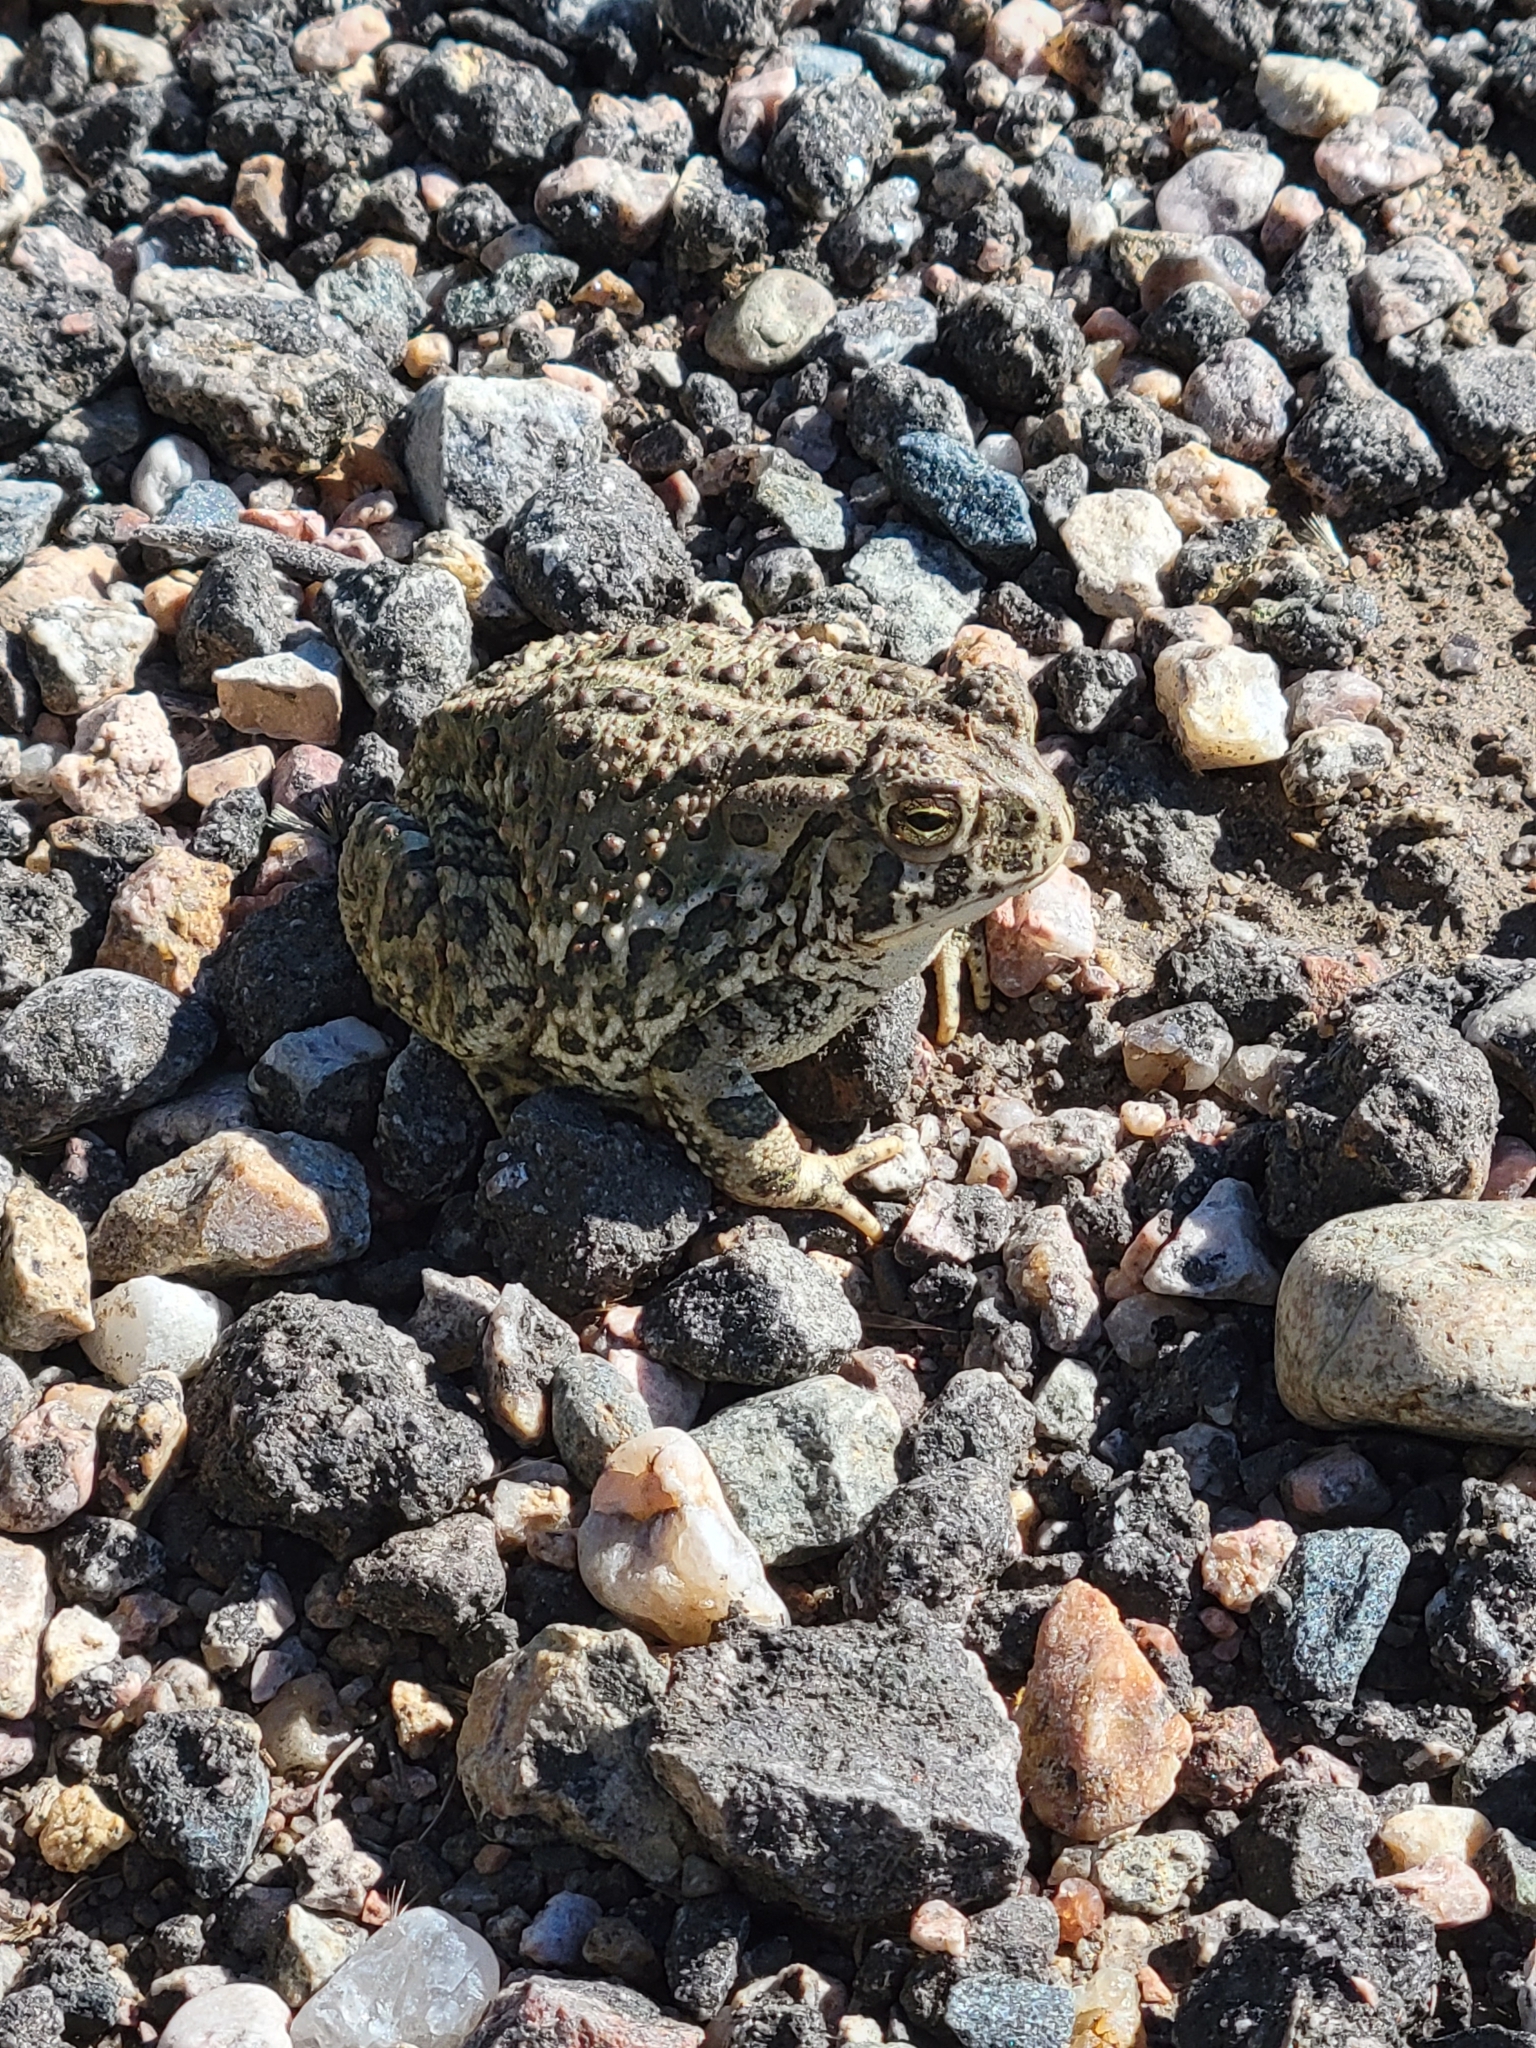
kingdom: Animalia
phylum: Chordata
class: Amphibia
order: Anura
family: Bufonidae
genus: Anaxyrus
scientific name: Anaxyrus woodhousii
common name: Woodhouse's toad
